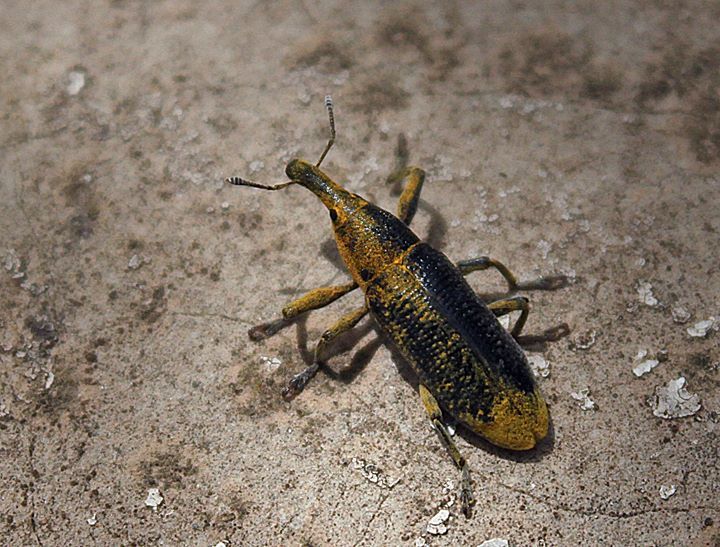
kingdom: Animalia
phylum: Arthropoda
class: Insecta
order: Coleoptera
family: Curculionidae
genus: Lixus
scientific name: Lixus pulverulentus
